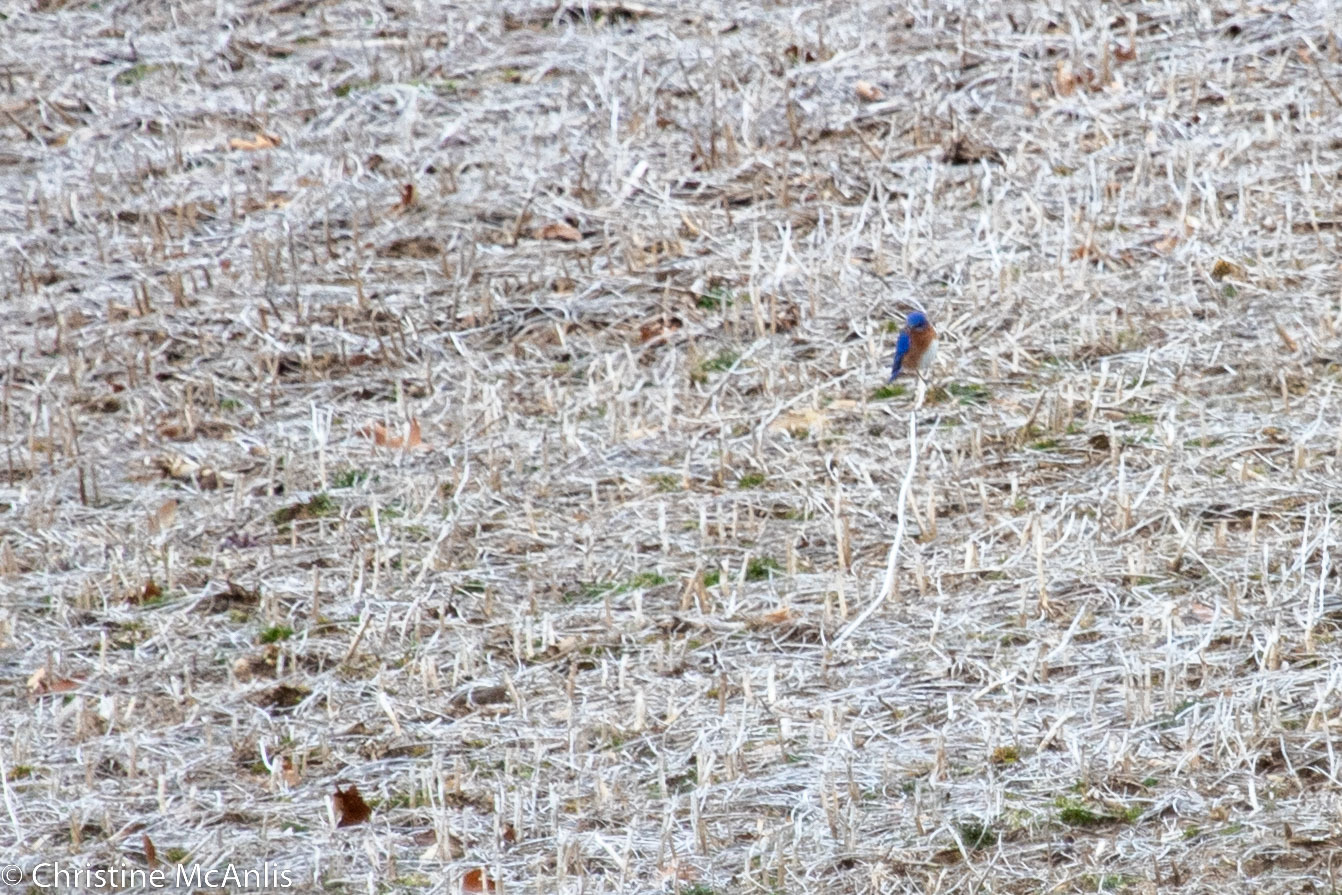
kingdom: Animalia
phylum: Chordata
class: Aves
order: Passeriformes
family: Turdidae
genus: Sialia
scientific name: Sialia sialis
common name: Eastern bluebird
